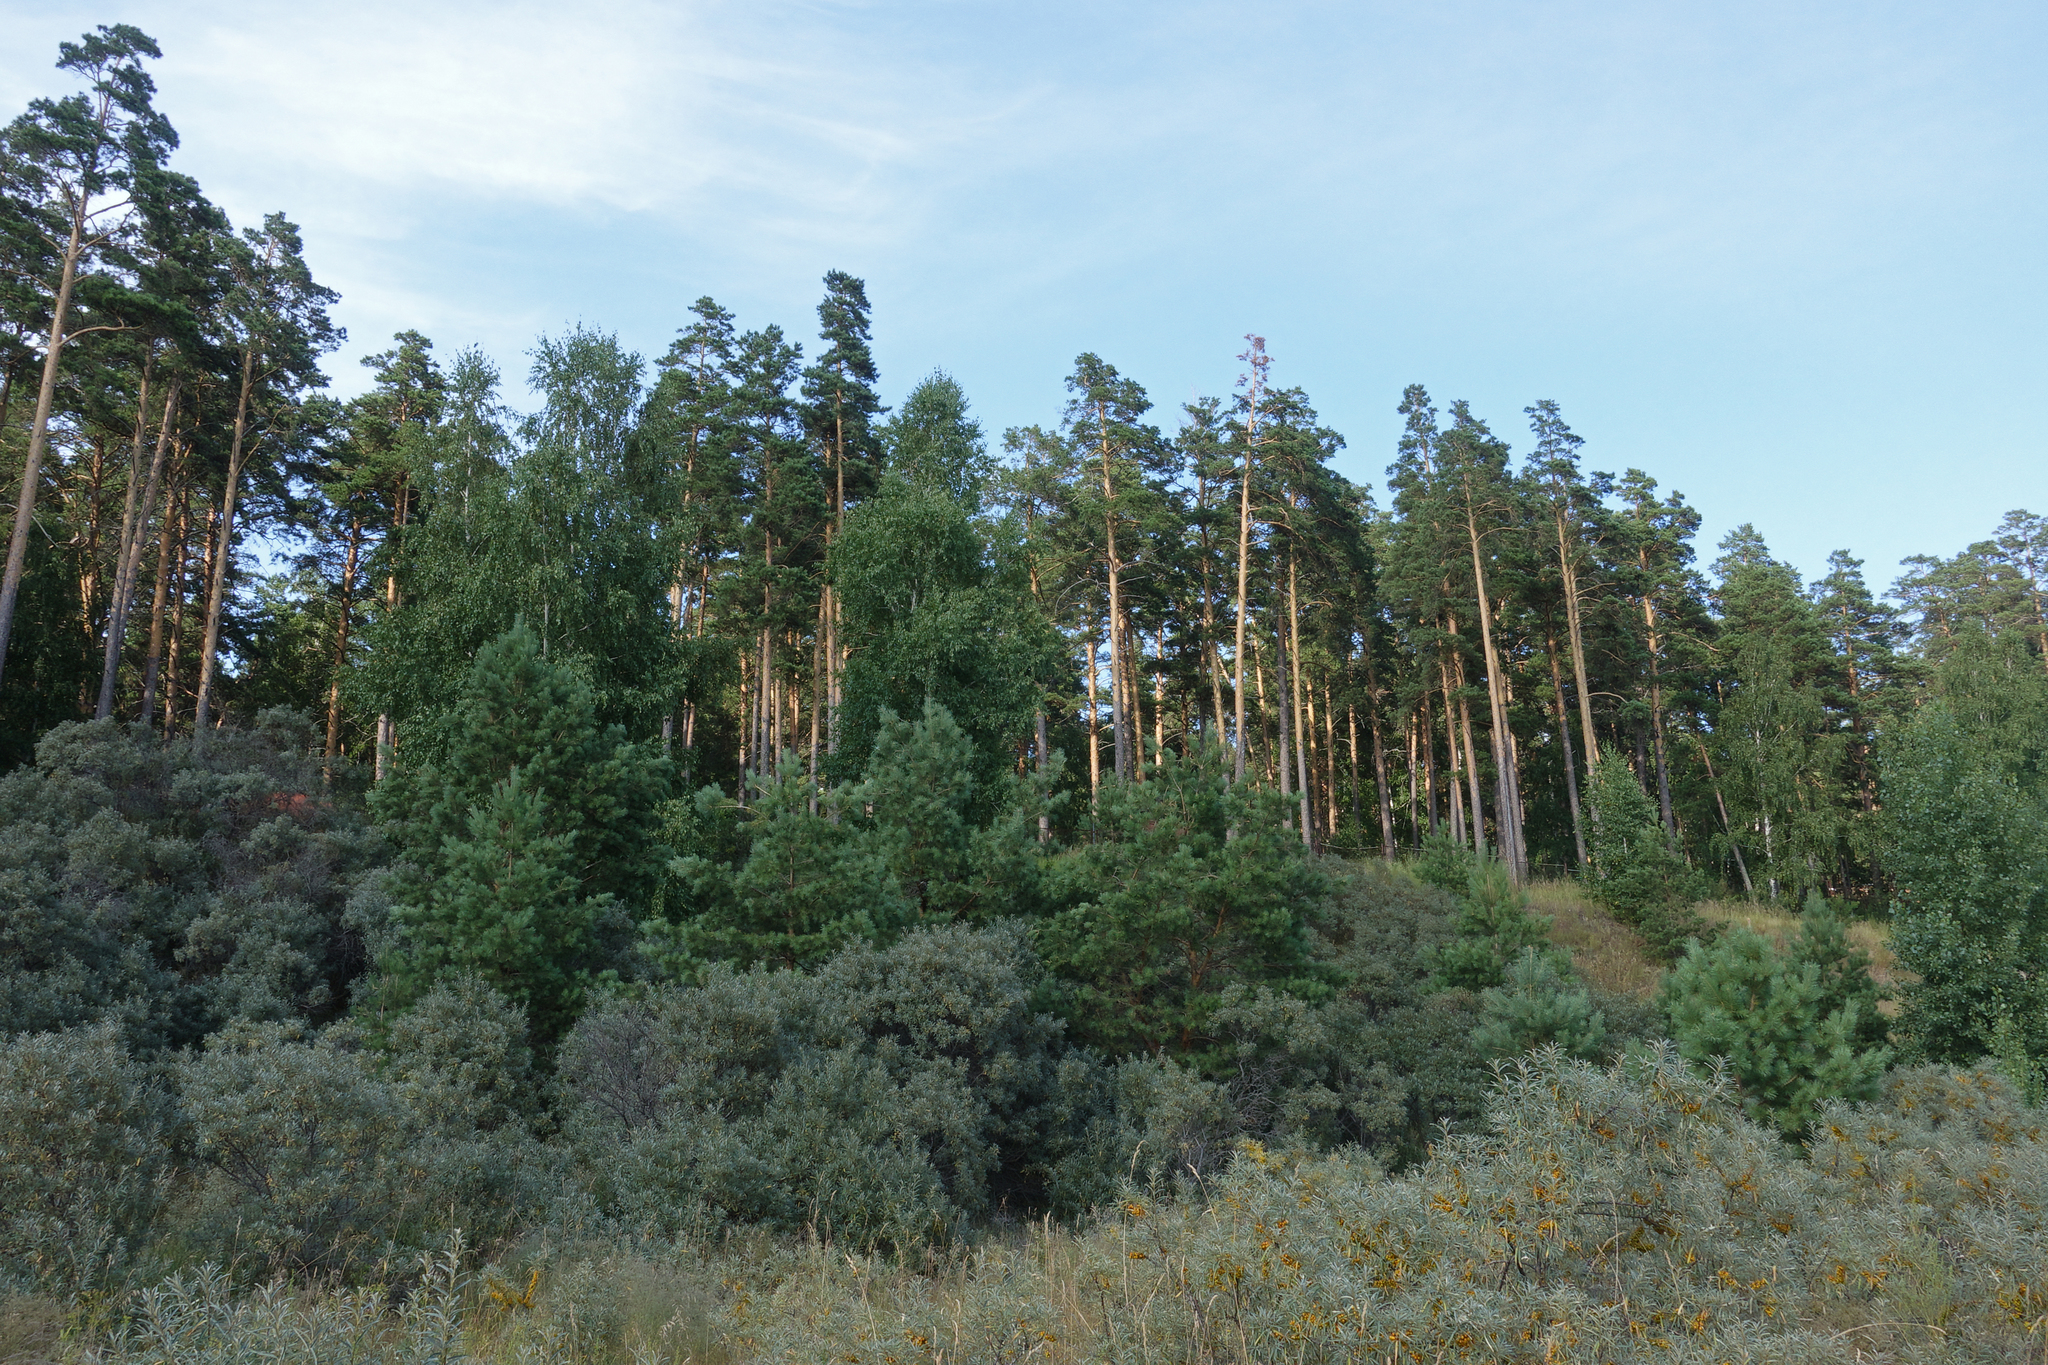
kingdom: Plantae
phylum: Tracheophyta
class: Magnoliopsida
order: Rosales
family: Elaeagnaceae
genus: Hippophae
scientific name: Hippophae rhamnoides
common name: Sea-buckthorn
